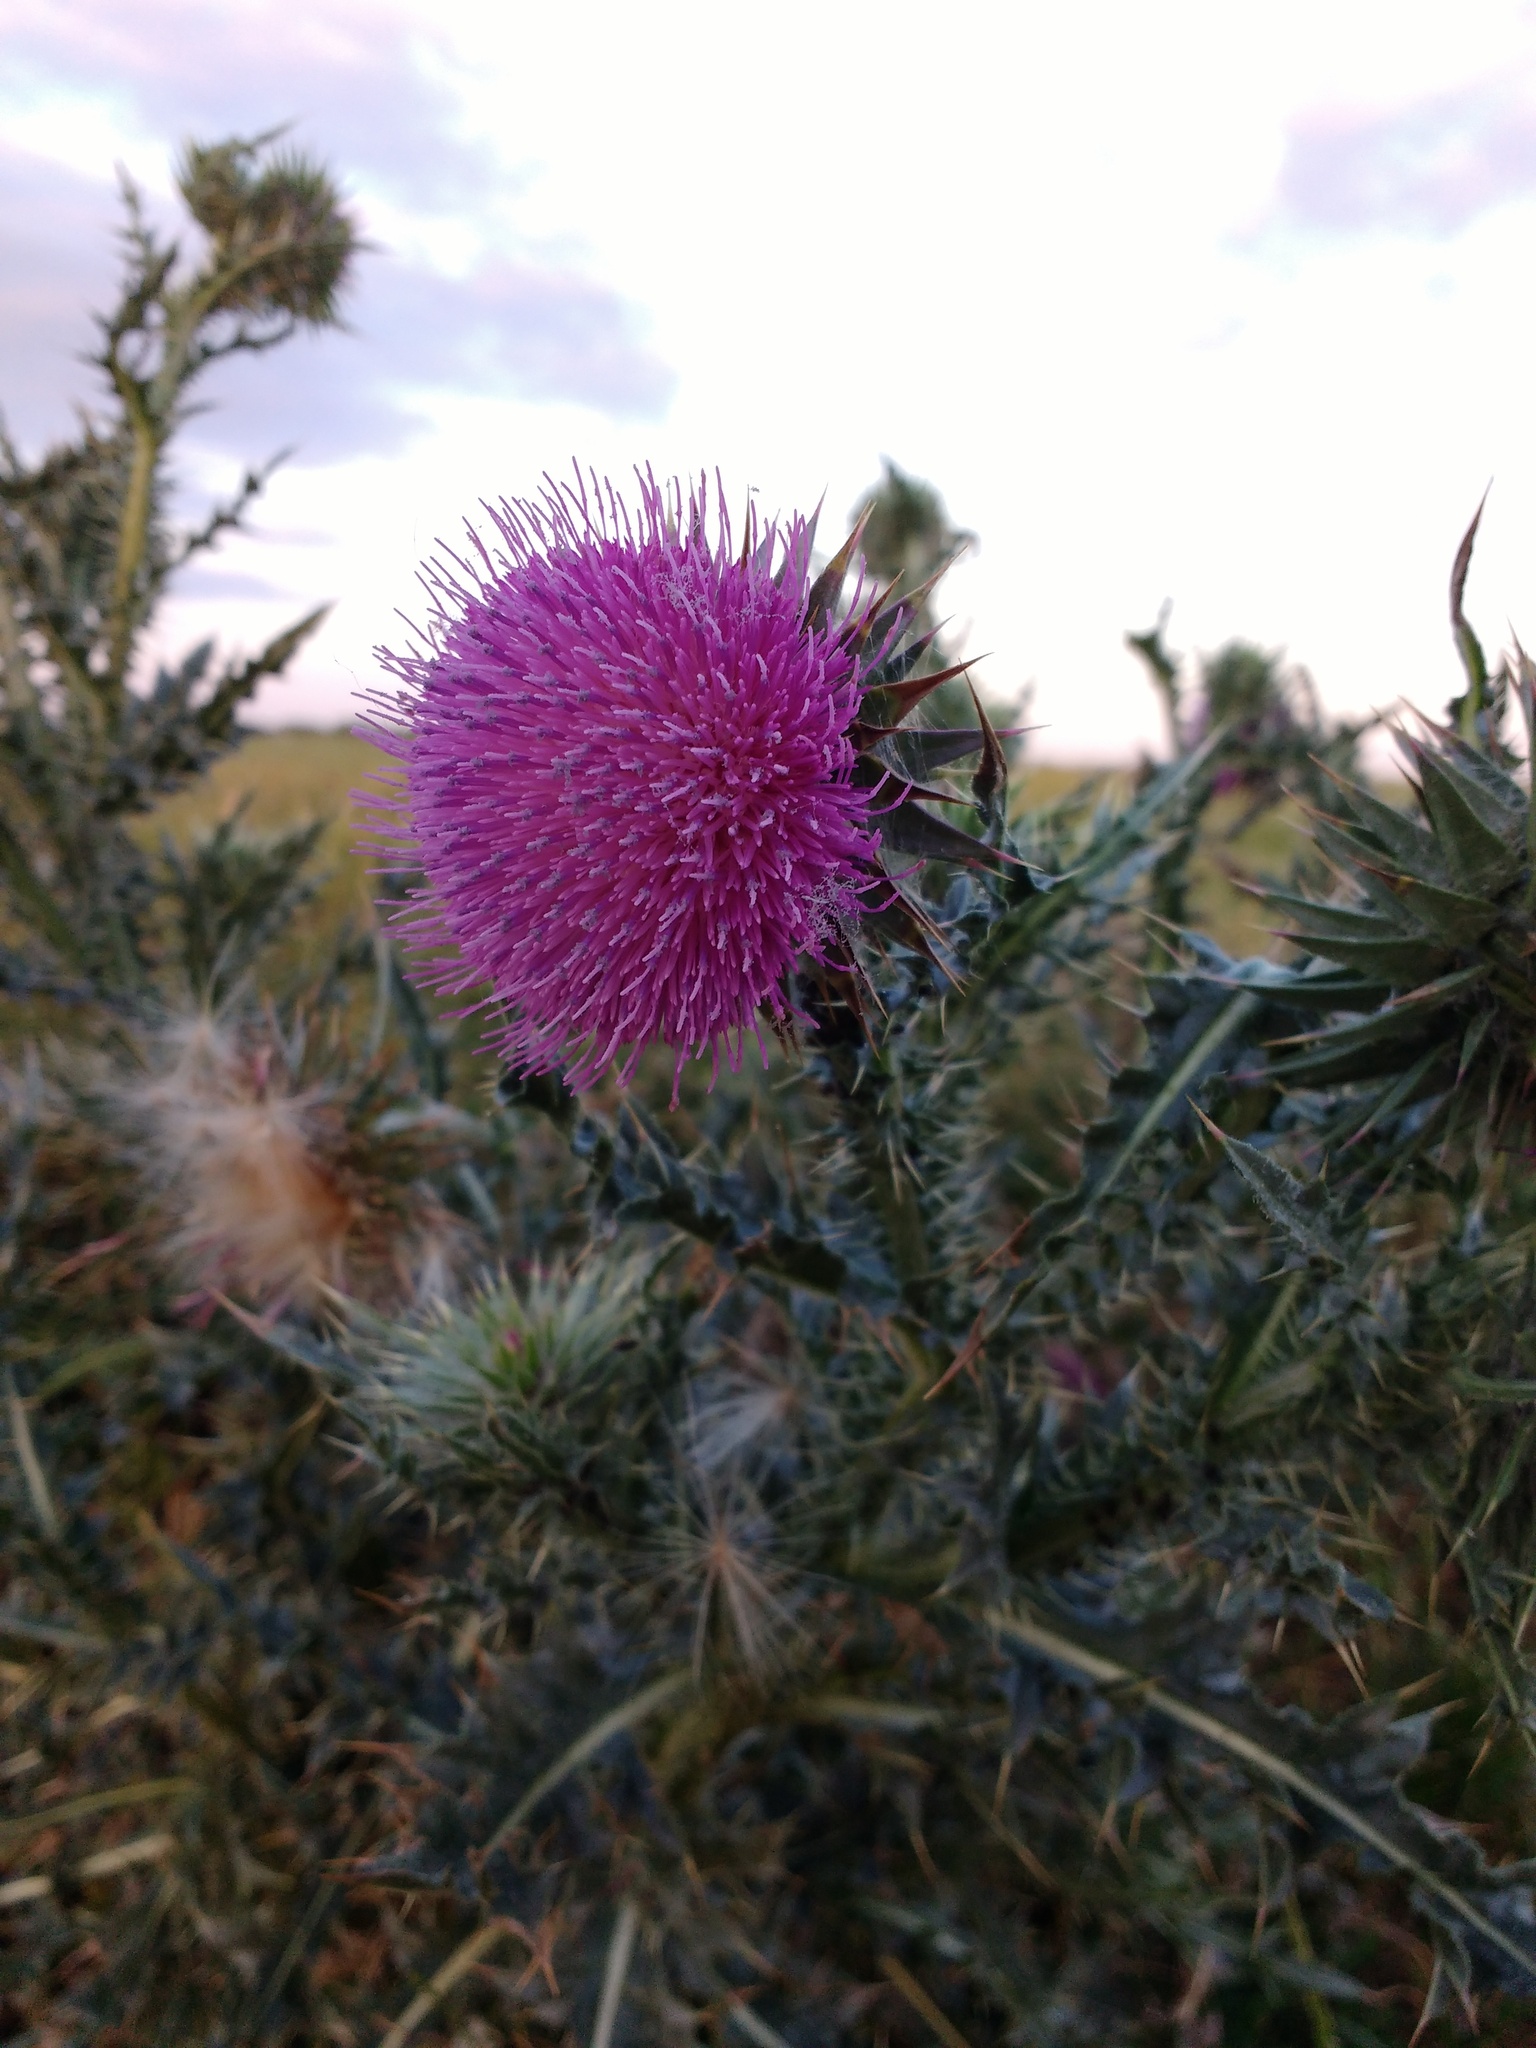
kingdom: Plantae
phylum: Tracheophyta
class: Magnoliopsida
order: Asterales
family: Asteraceae
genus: Carduus
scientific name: Carduus nutans
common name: Musk thistle
